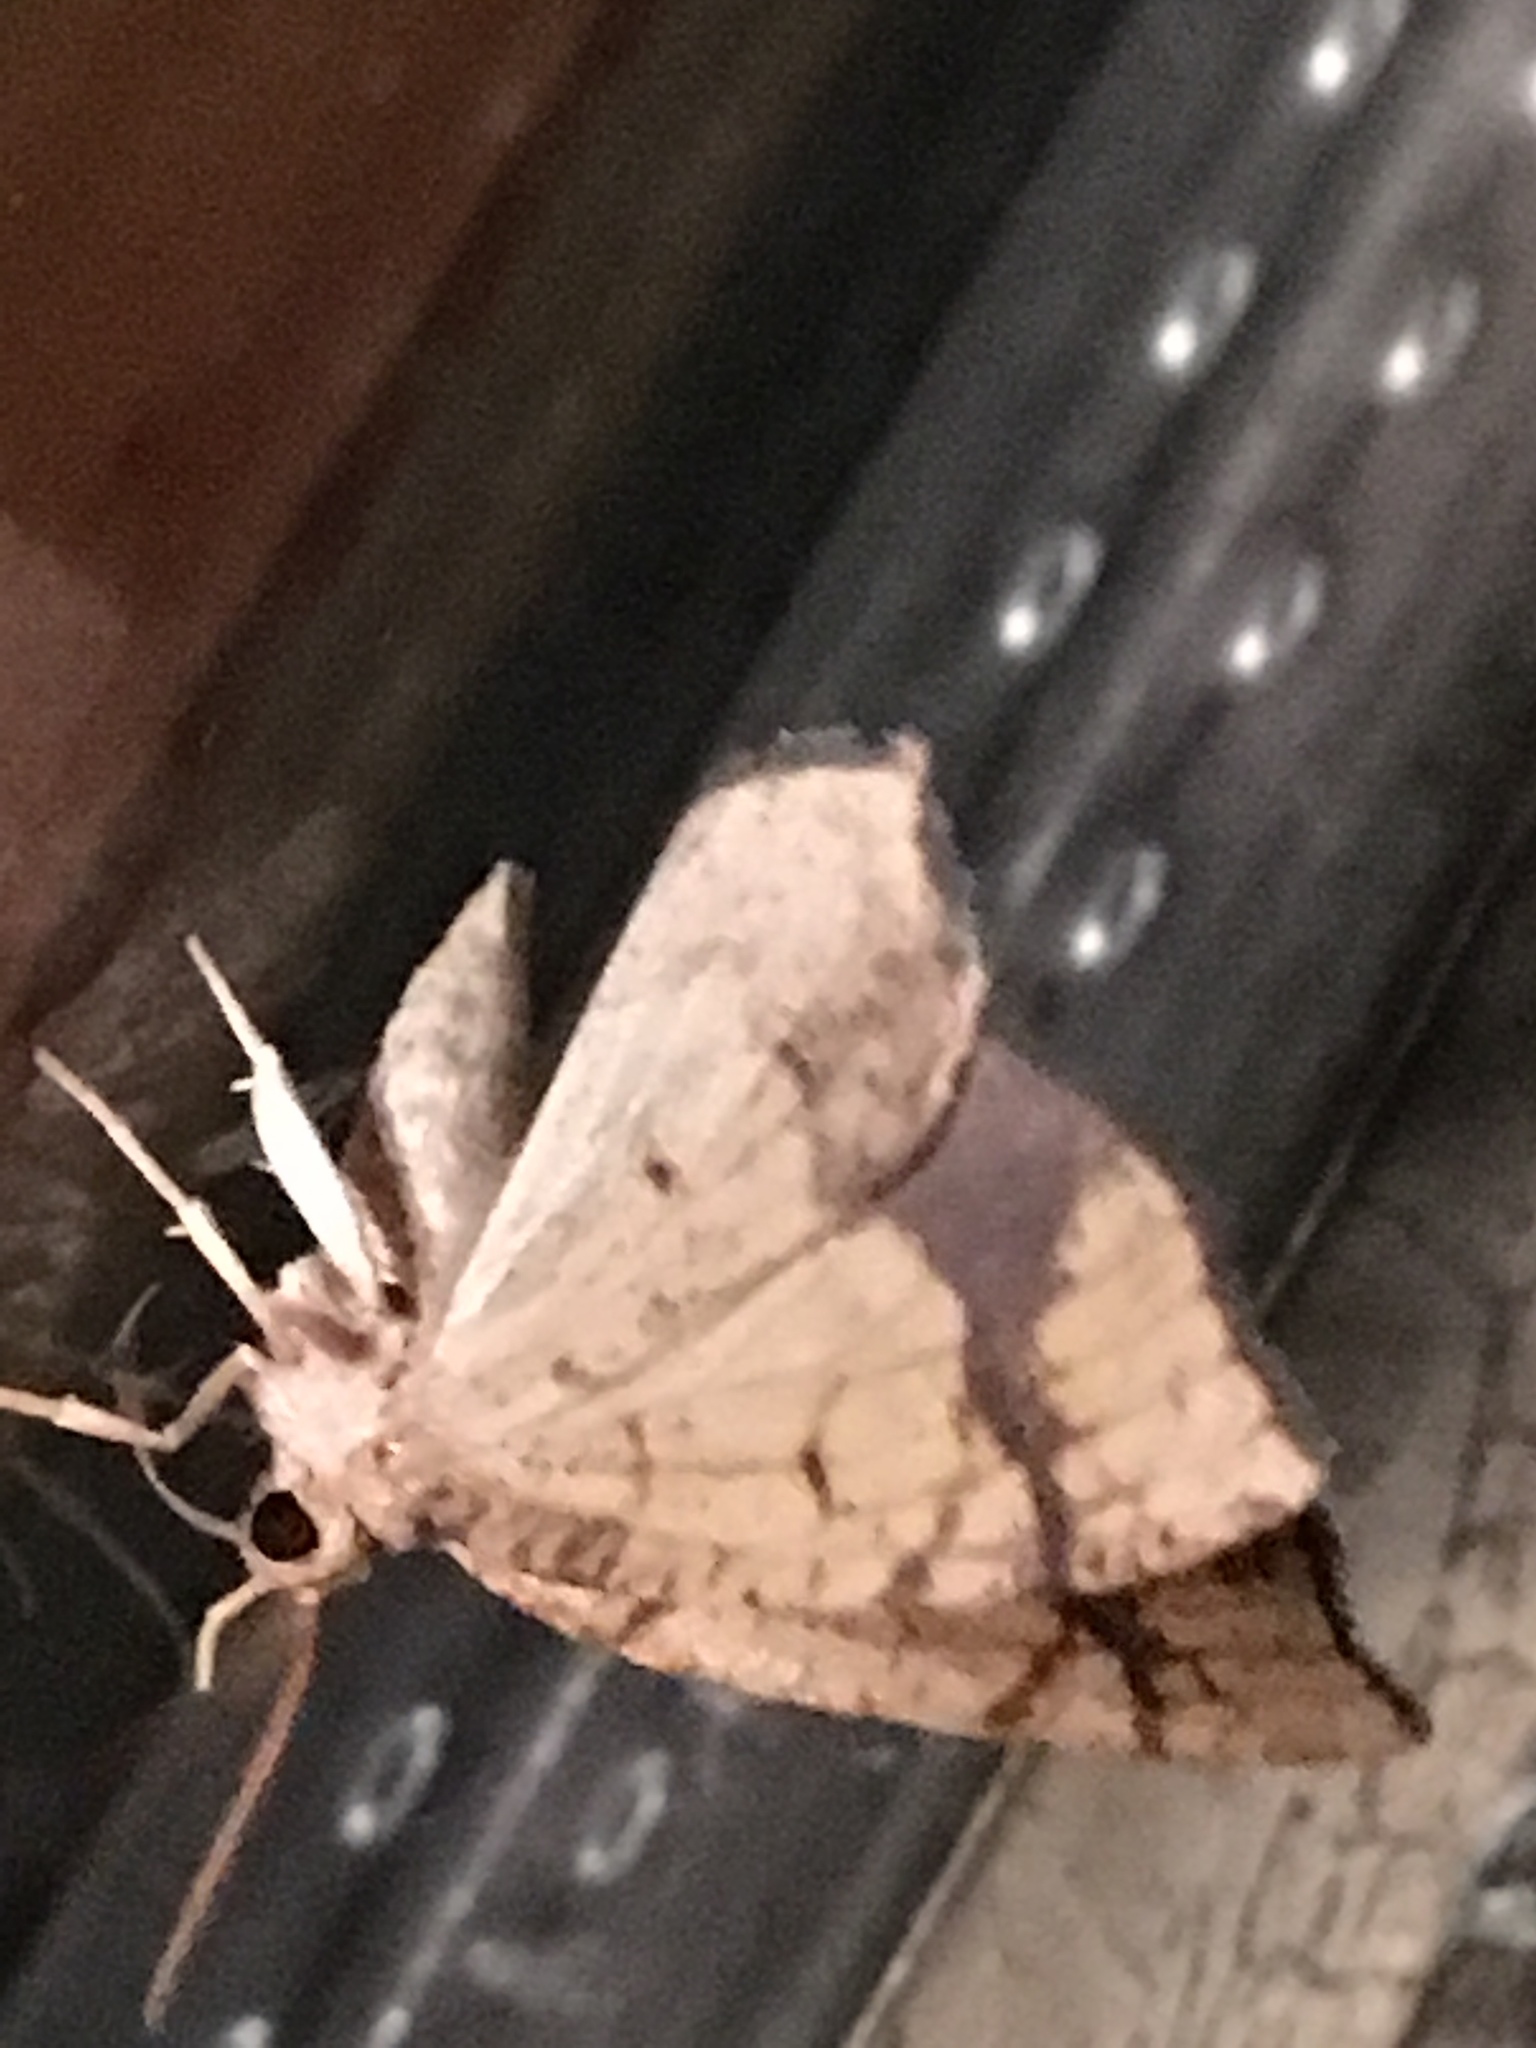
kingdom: Animalia
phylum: Arthropoda
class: Insecta
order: Lepidoptera
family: Geometridae
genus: Nematocampa
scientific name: Nematocampa resistaria
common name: Horned spanworm moth
